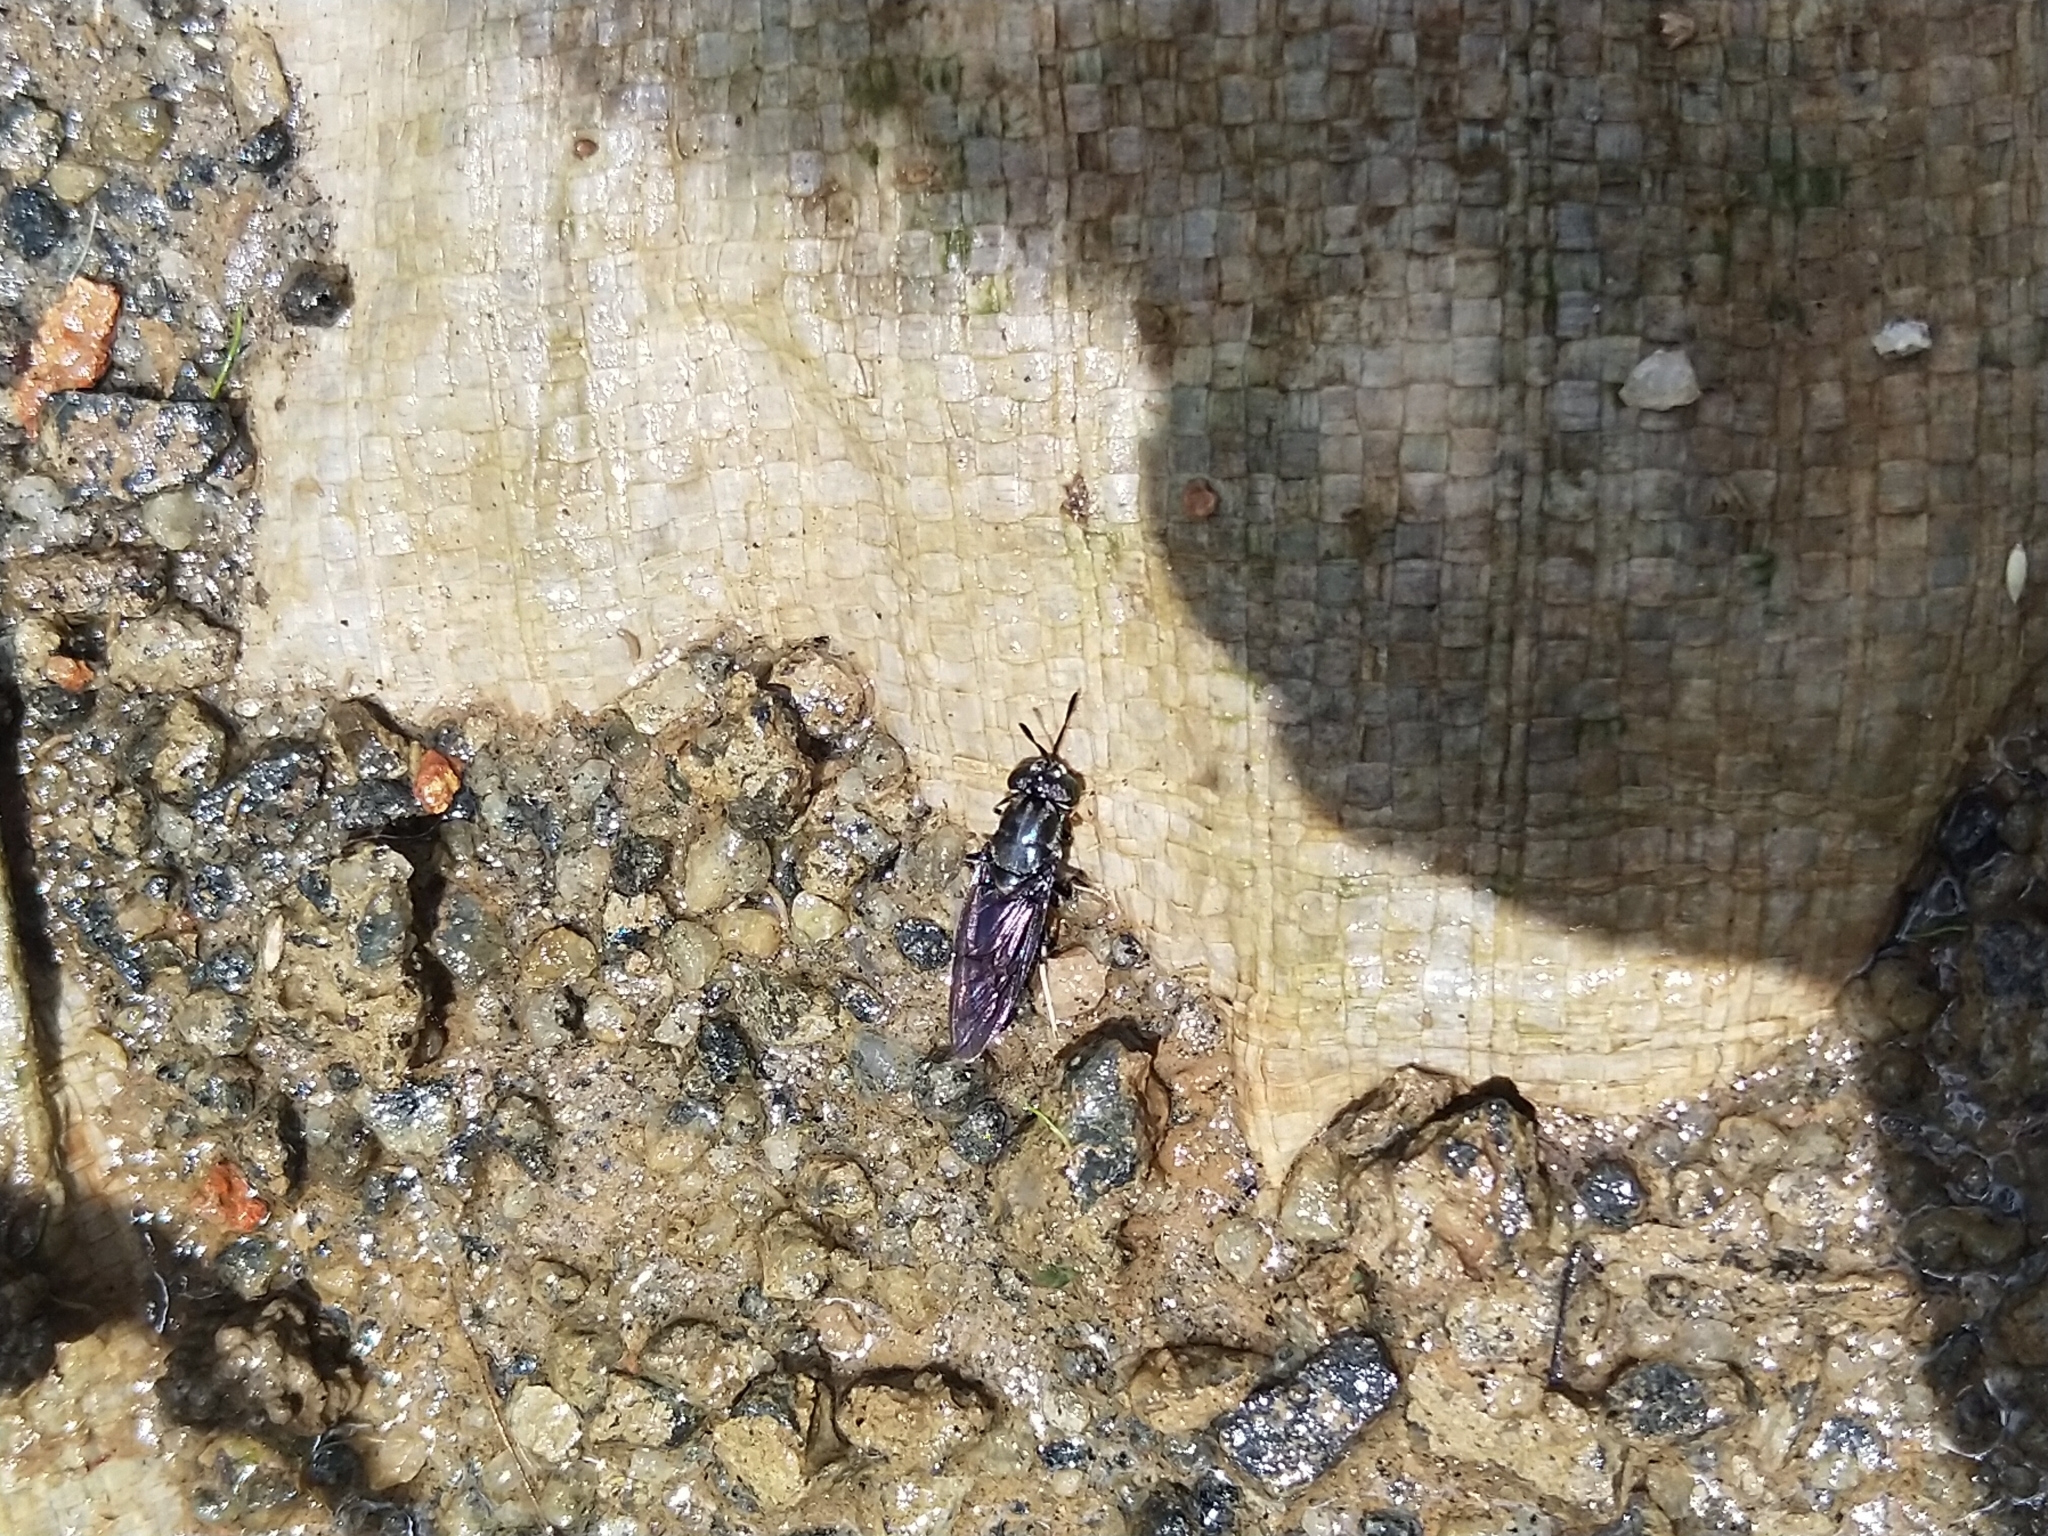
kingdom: Animalia
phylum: Arthropoda
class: Insecta
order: Diptera
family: Stratiomyidae
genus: Hermetia
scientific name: Hermetia illucens
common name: Black soldier fly
